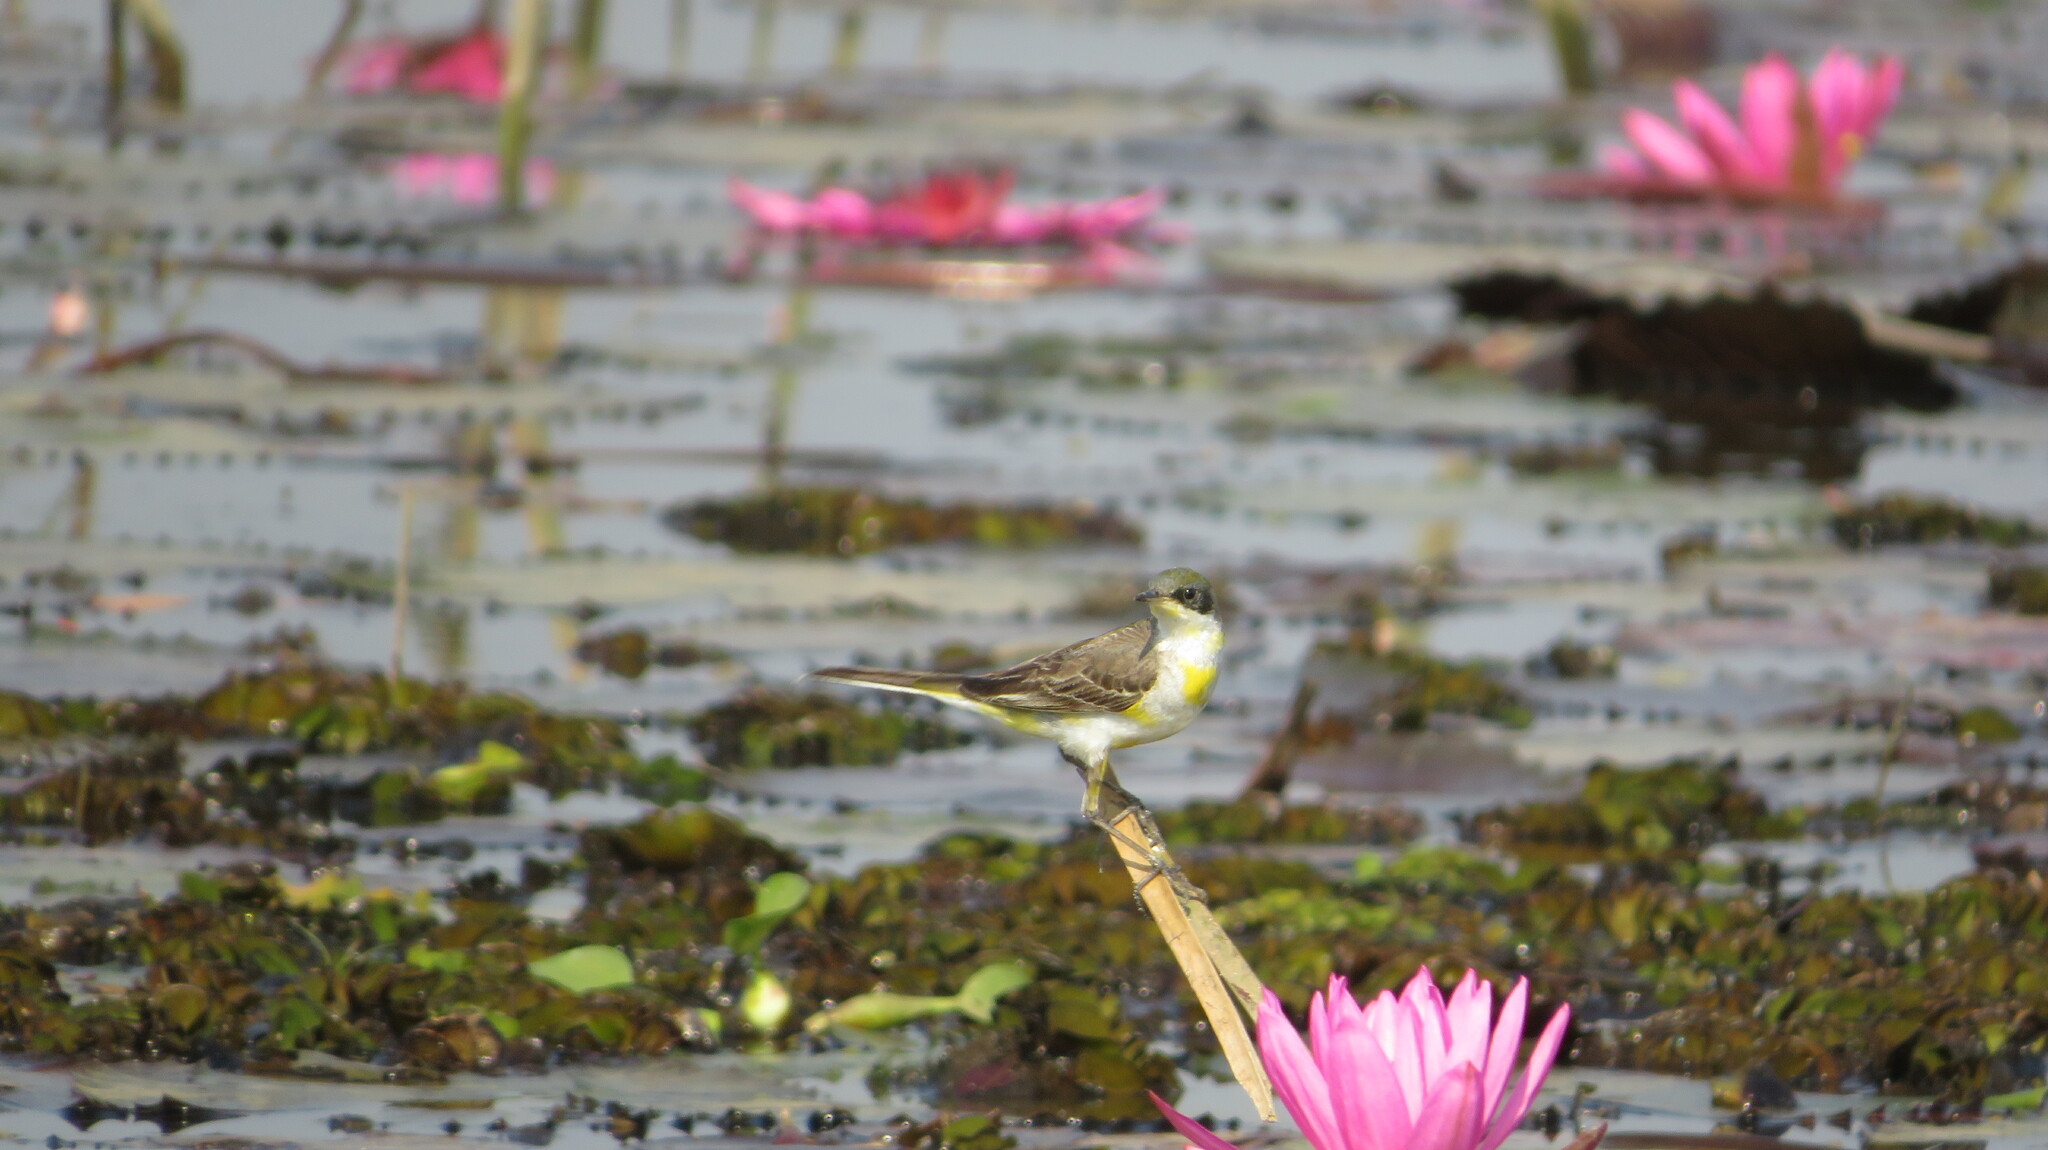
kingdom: Animalia
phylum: Chordata
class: Aves
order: Passeriformes
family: Motacillidae
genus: Motacilla
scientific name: Motacilla tschutschensis
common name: Eastern yellow wagtail
